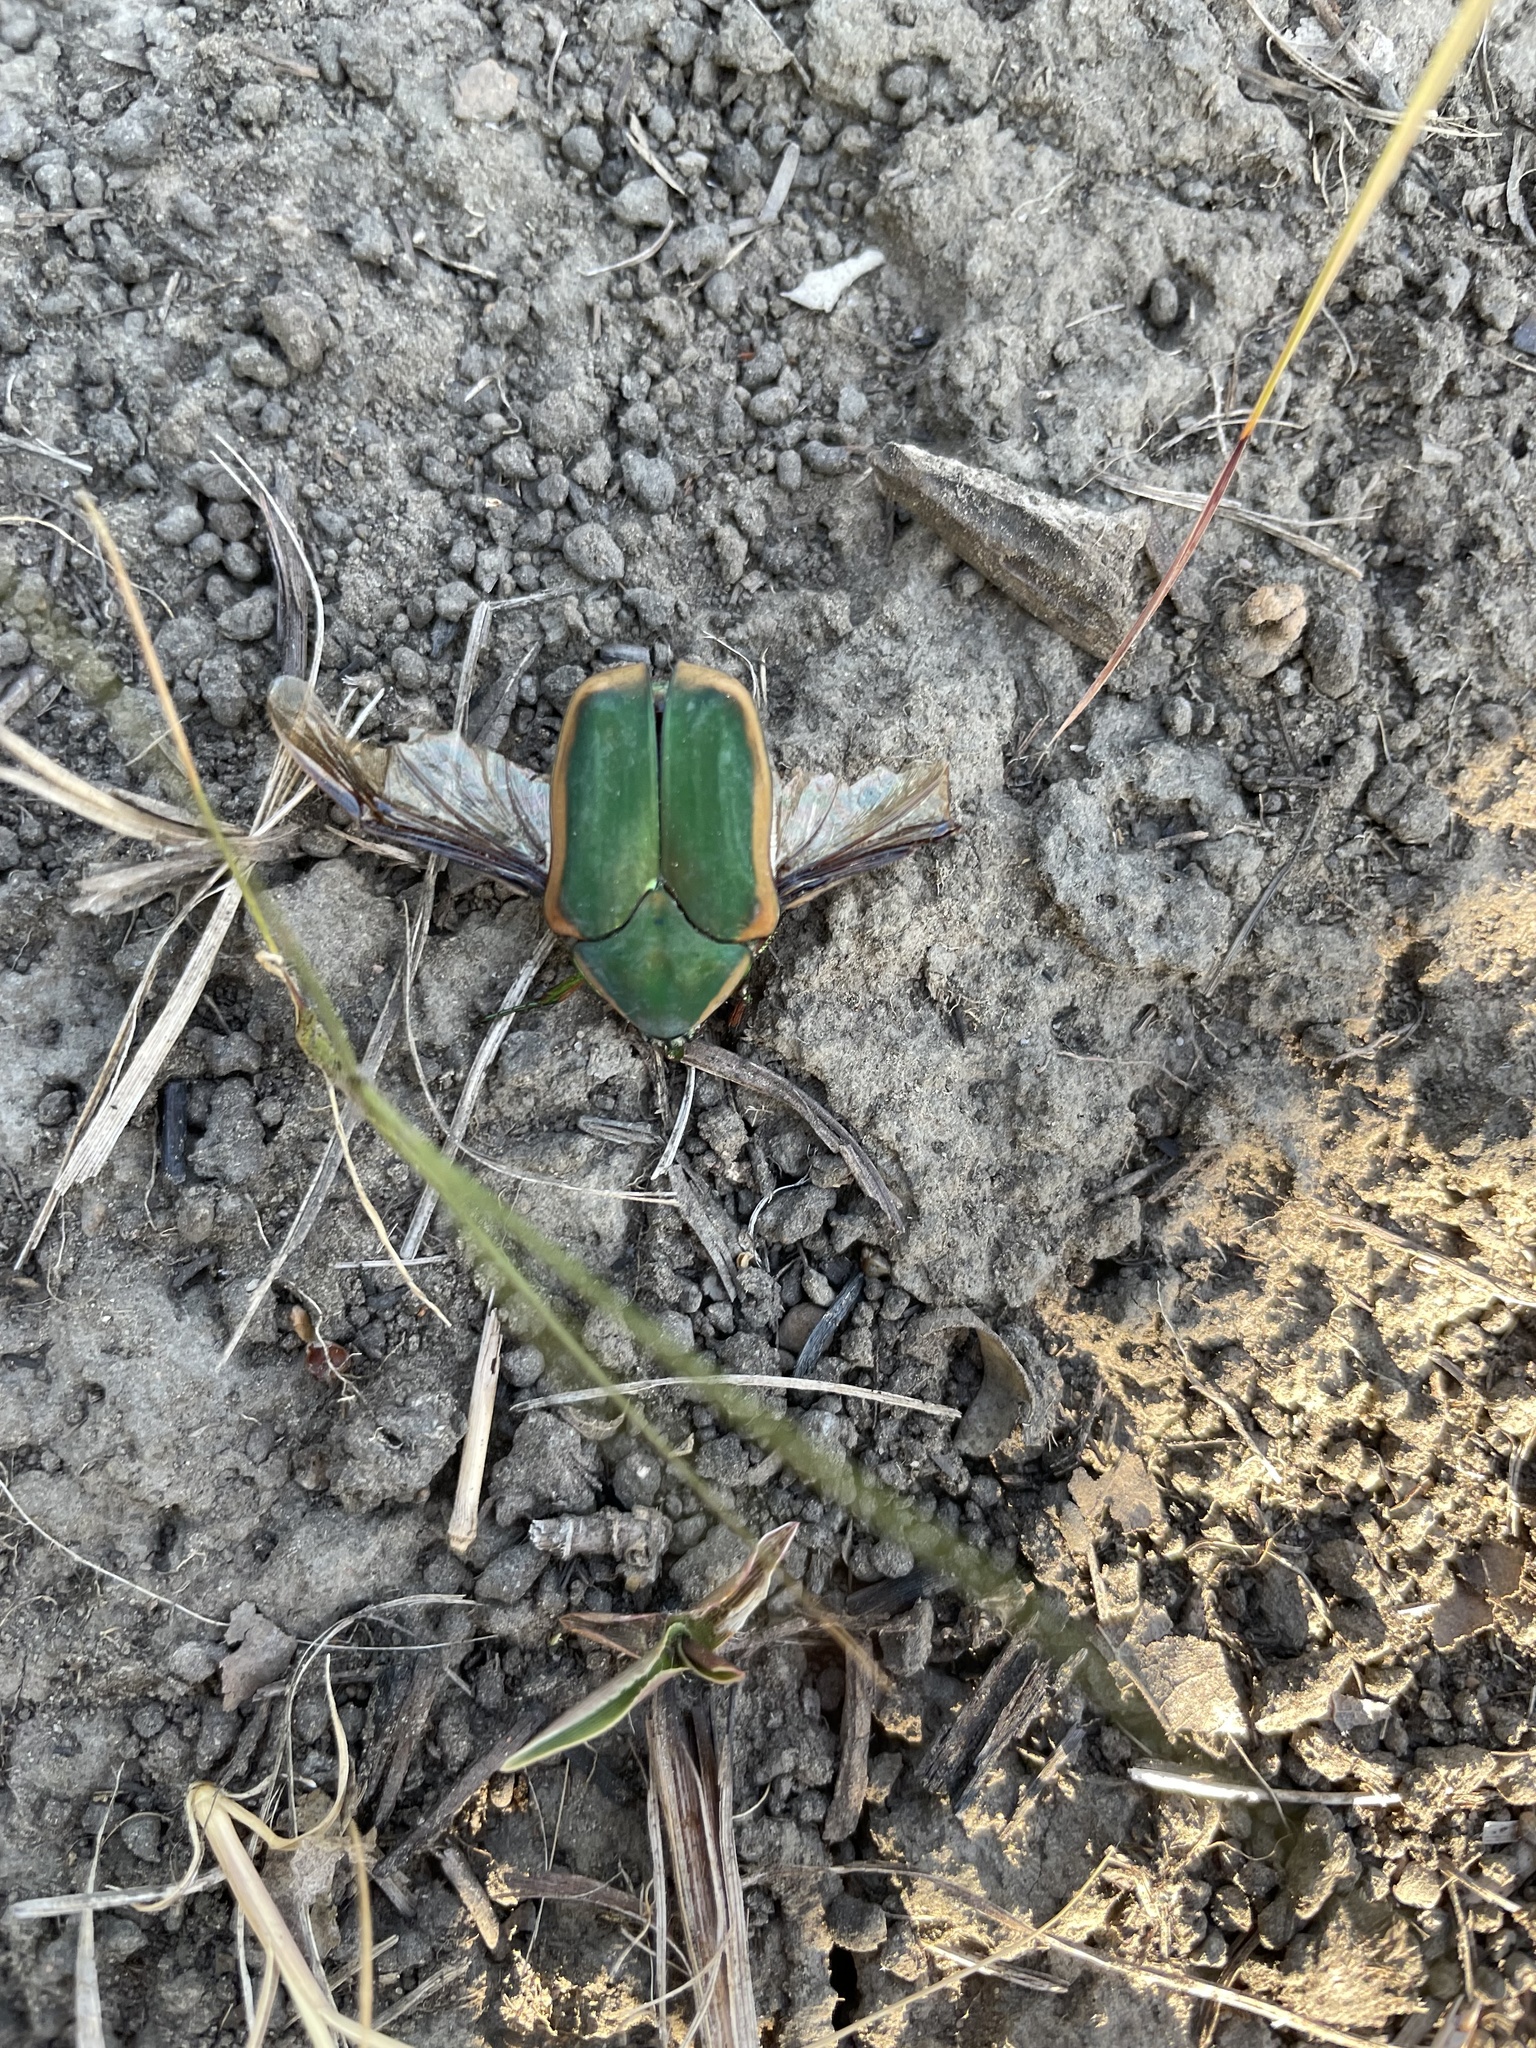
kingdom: Animalia
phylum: Arthropoda
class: Insecta
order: Coleoptera
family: Scarabaeidae
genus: Cotinis
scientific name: Cotinis nitida
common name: Common green june beetle
